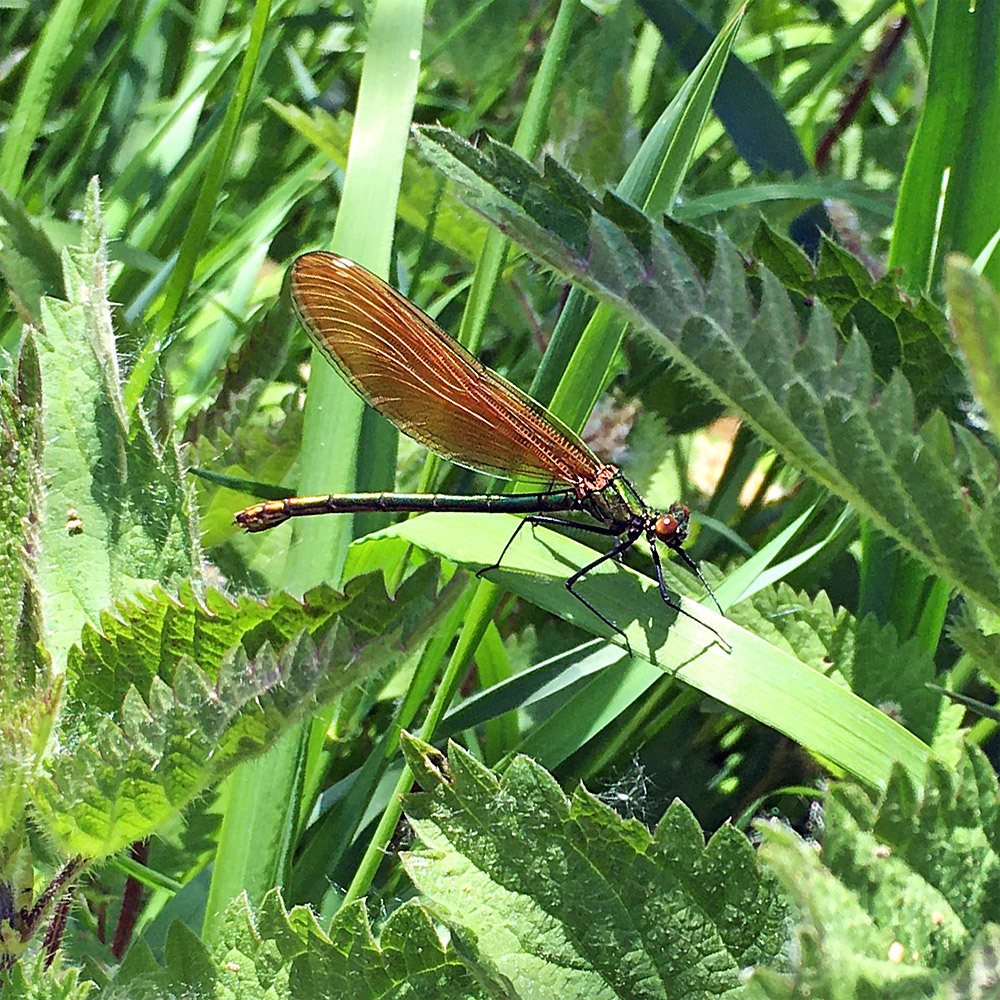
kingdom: Animalia
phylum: Arthropoda
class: Insecta
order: Odonata
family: Calopterygidae
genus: Calopteryx
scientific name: Calopteryx virgo
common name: Beautiful demoiselle
